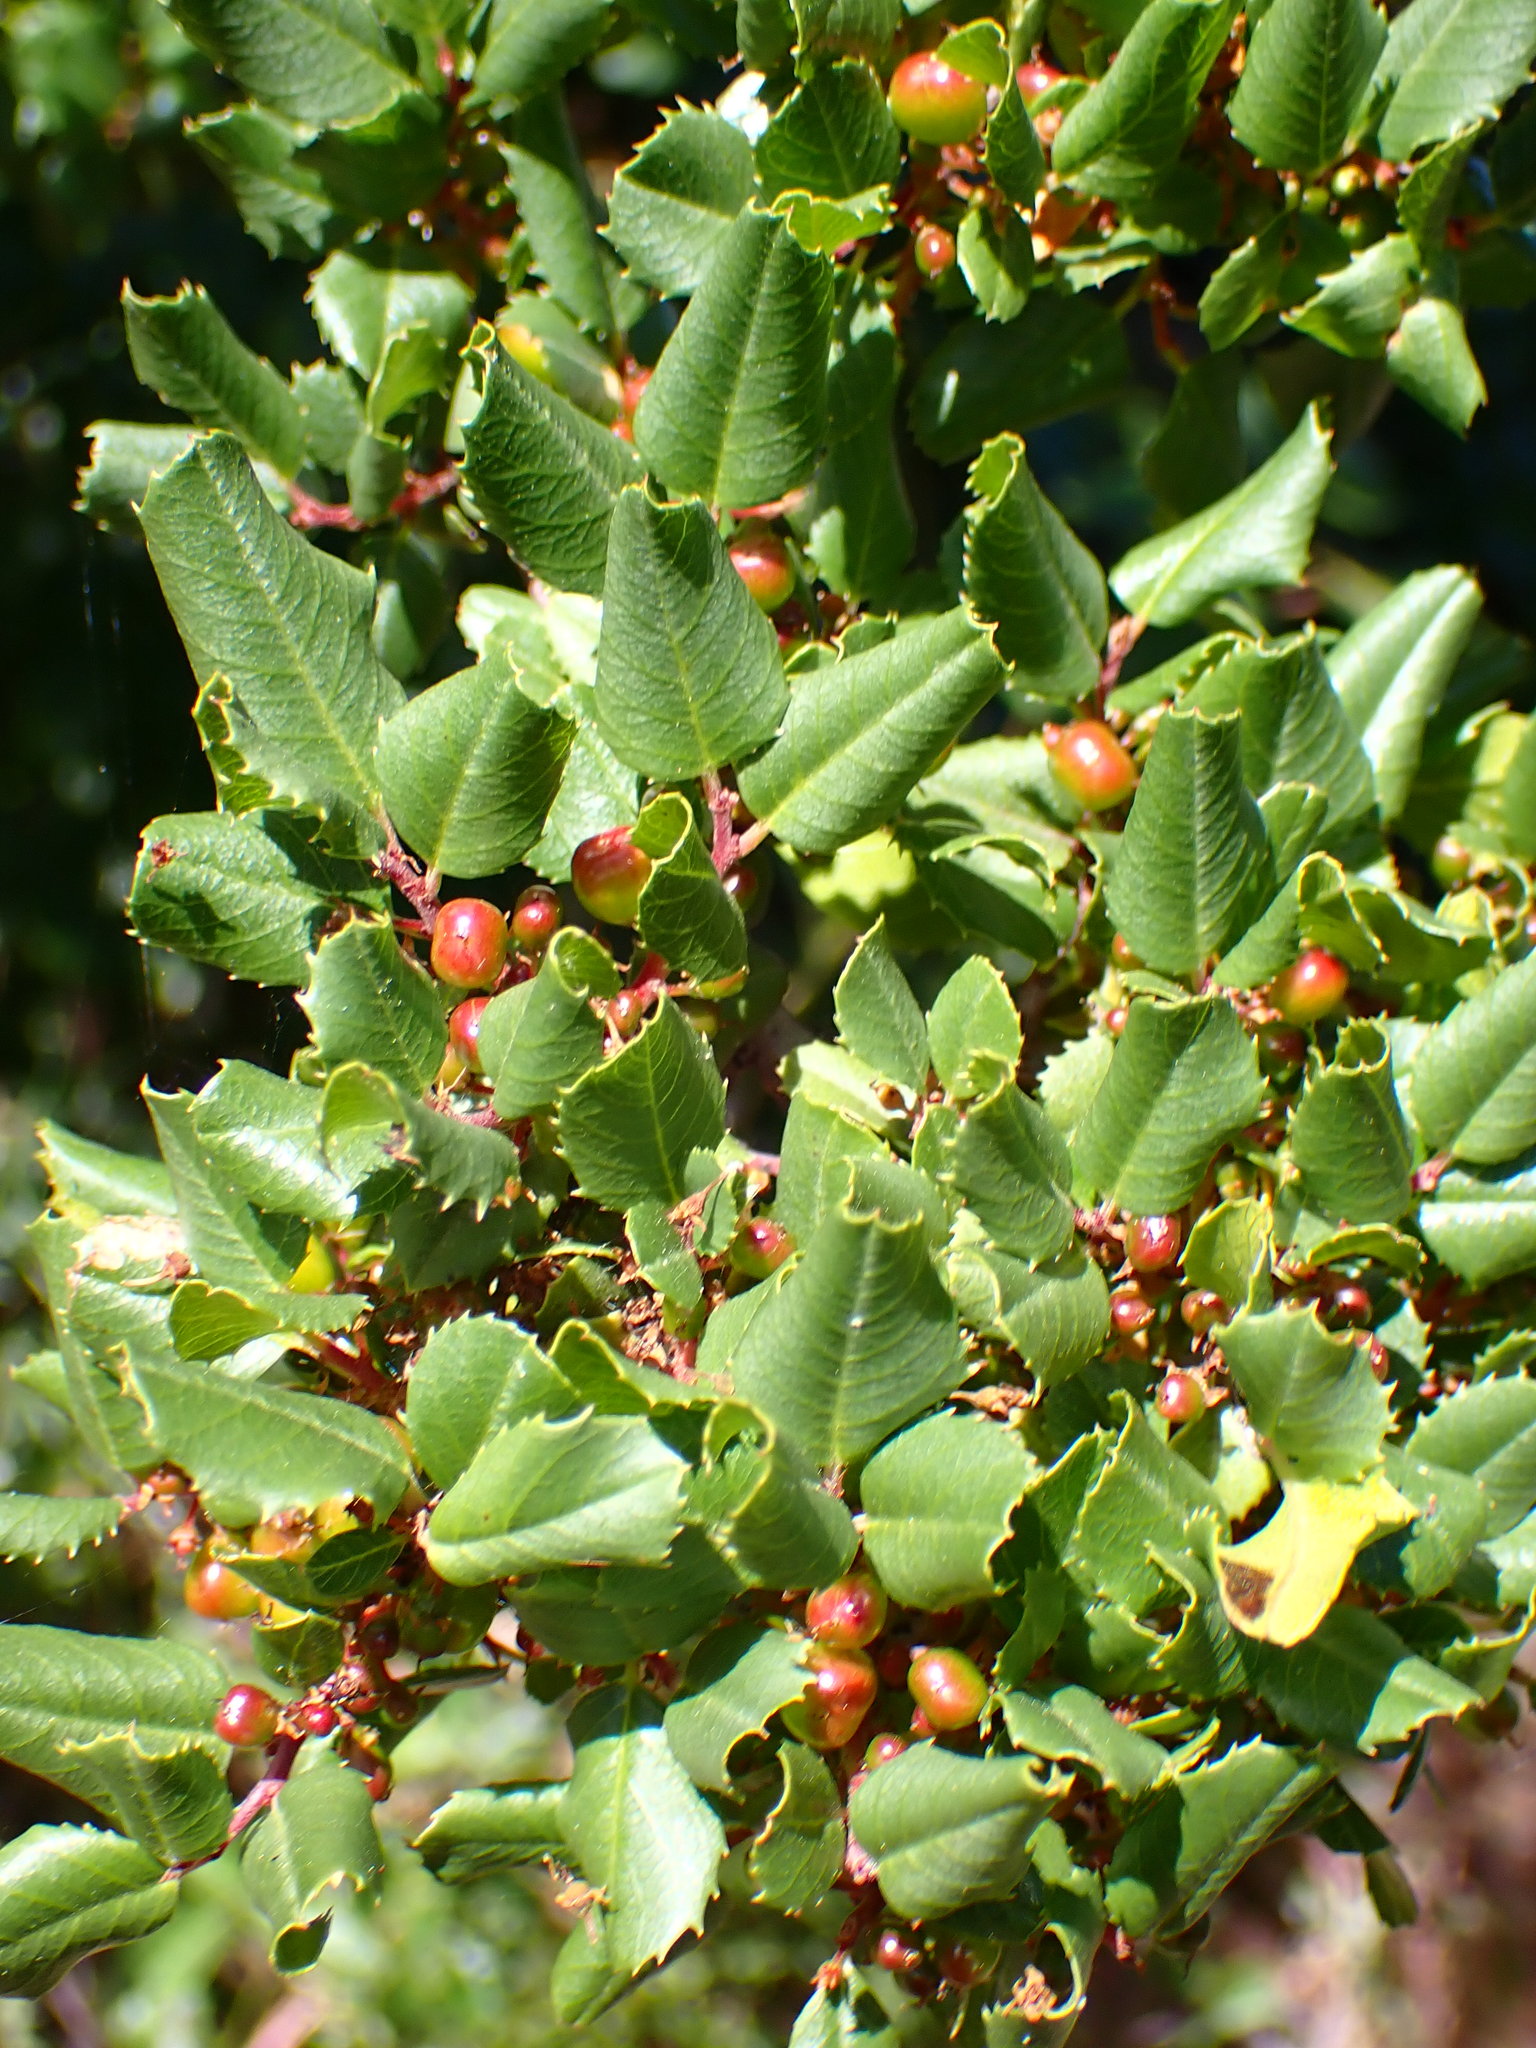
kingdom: Plantae
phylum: Tracheophyta
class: Magnoliopsida
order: Rosales
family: Rhamnaceae
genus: Endotropis
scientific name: Endotropis crocea
